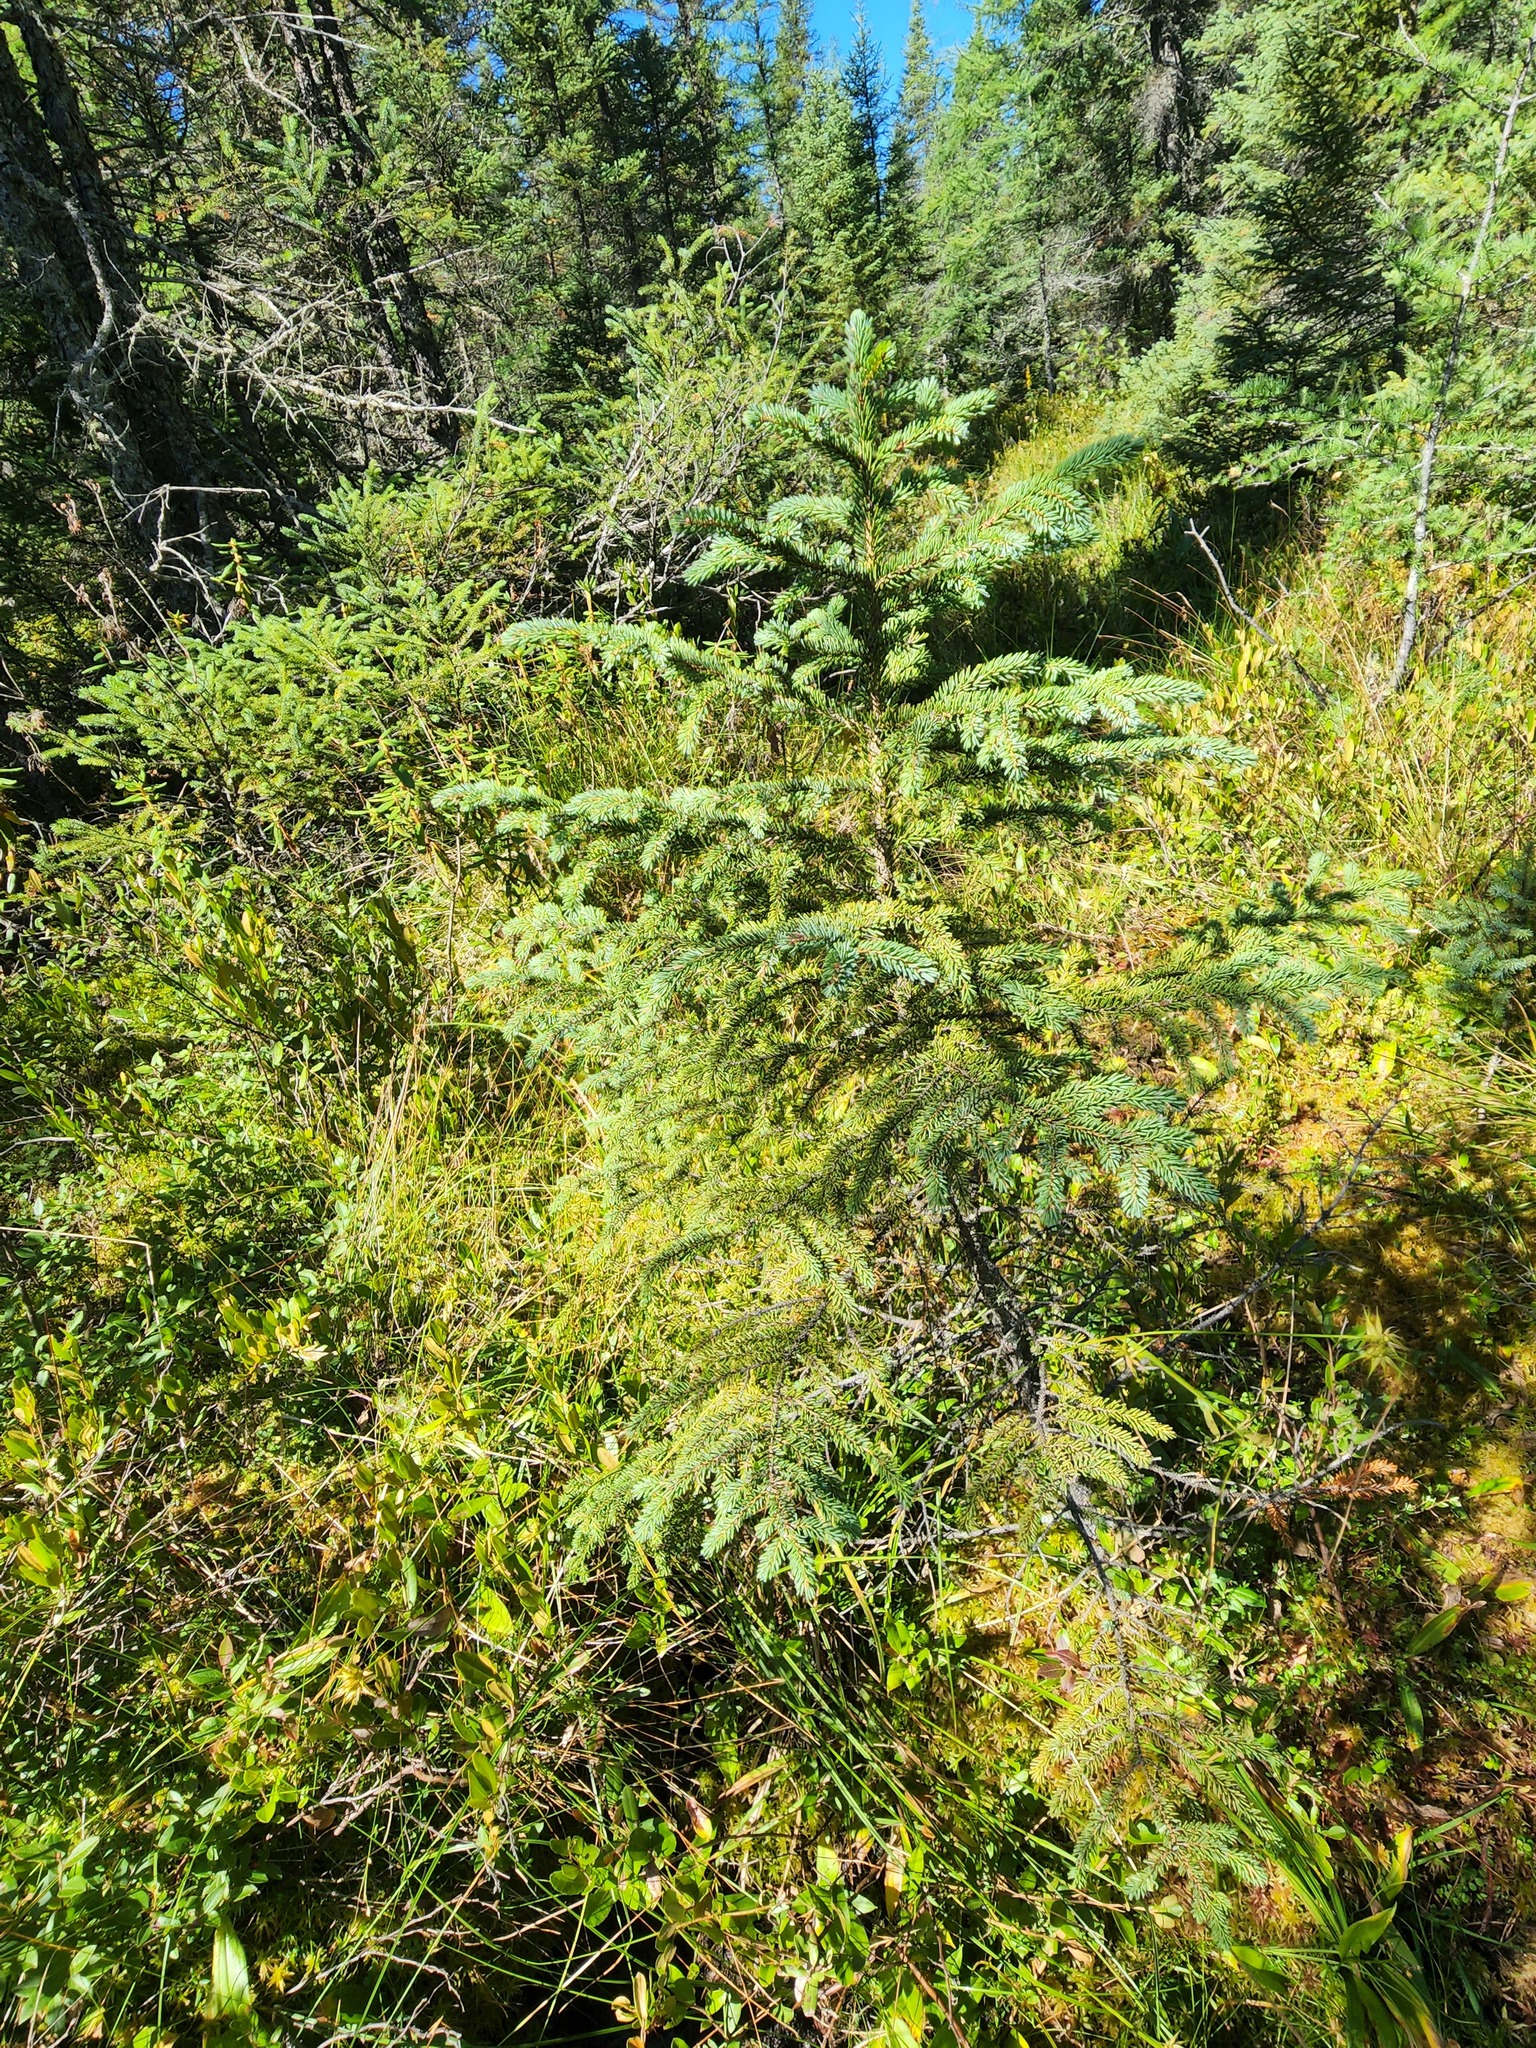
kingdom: Plantae
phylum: Tracheophyta
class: Pinopsida
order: Pinales
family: Pinaceae
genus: Picea
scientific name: Picea mariana
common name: Black spruce
